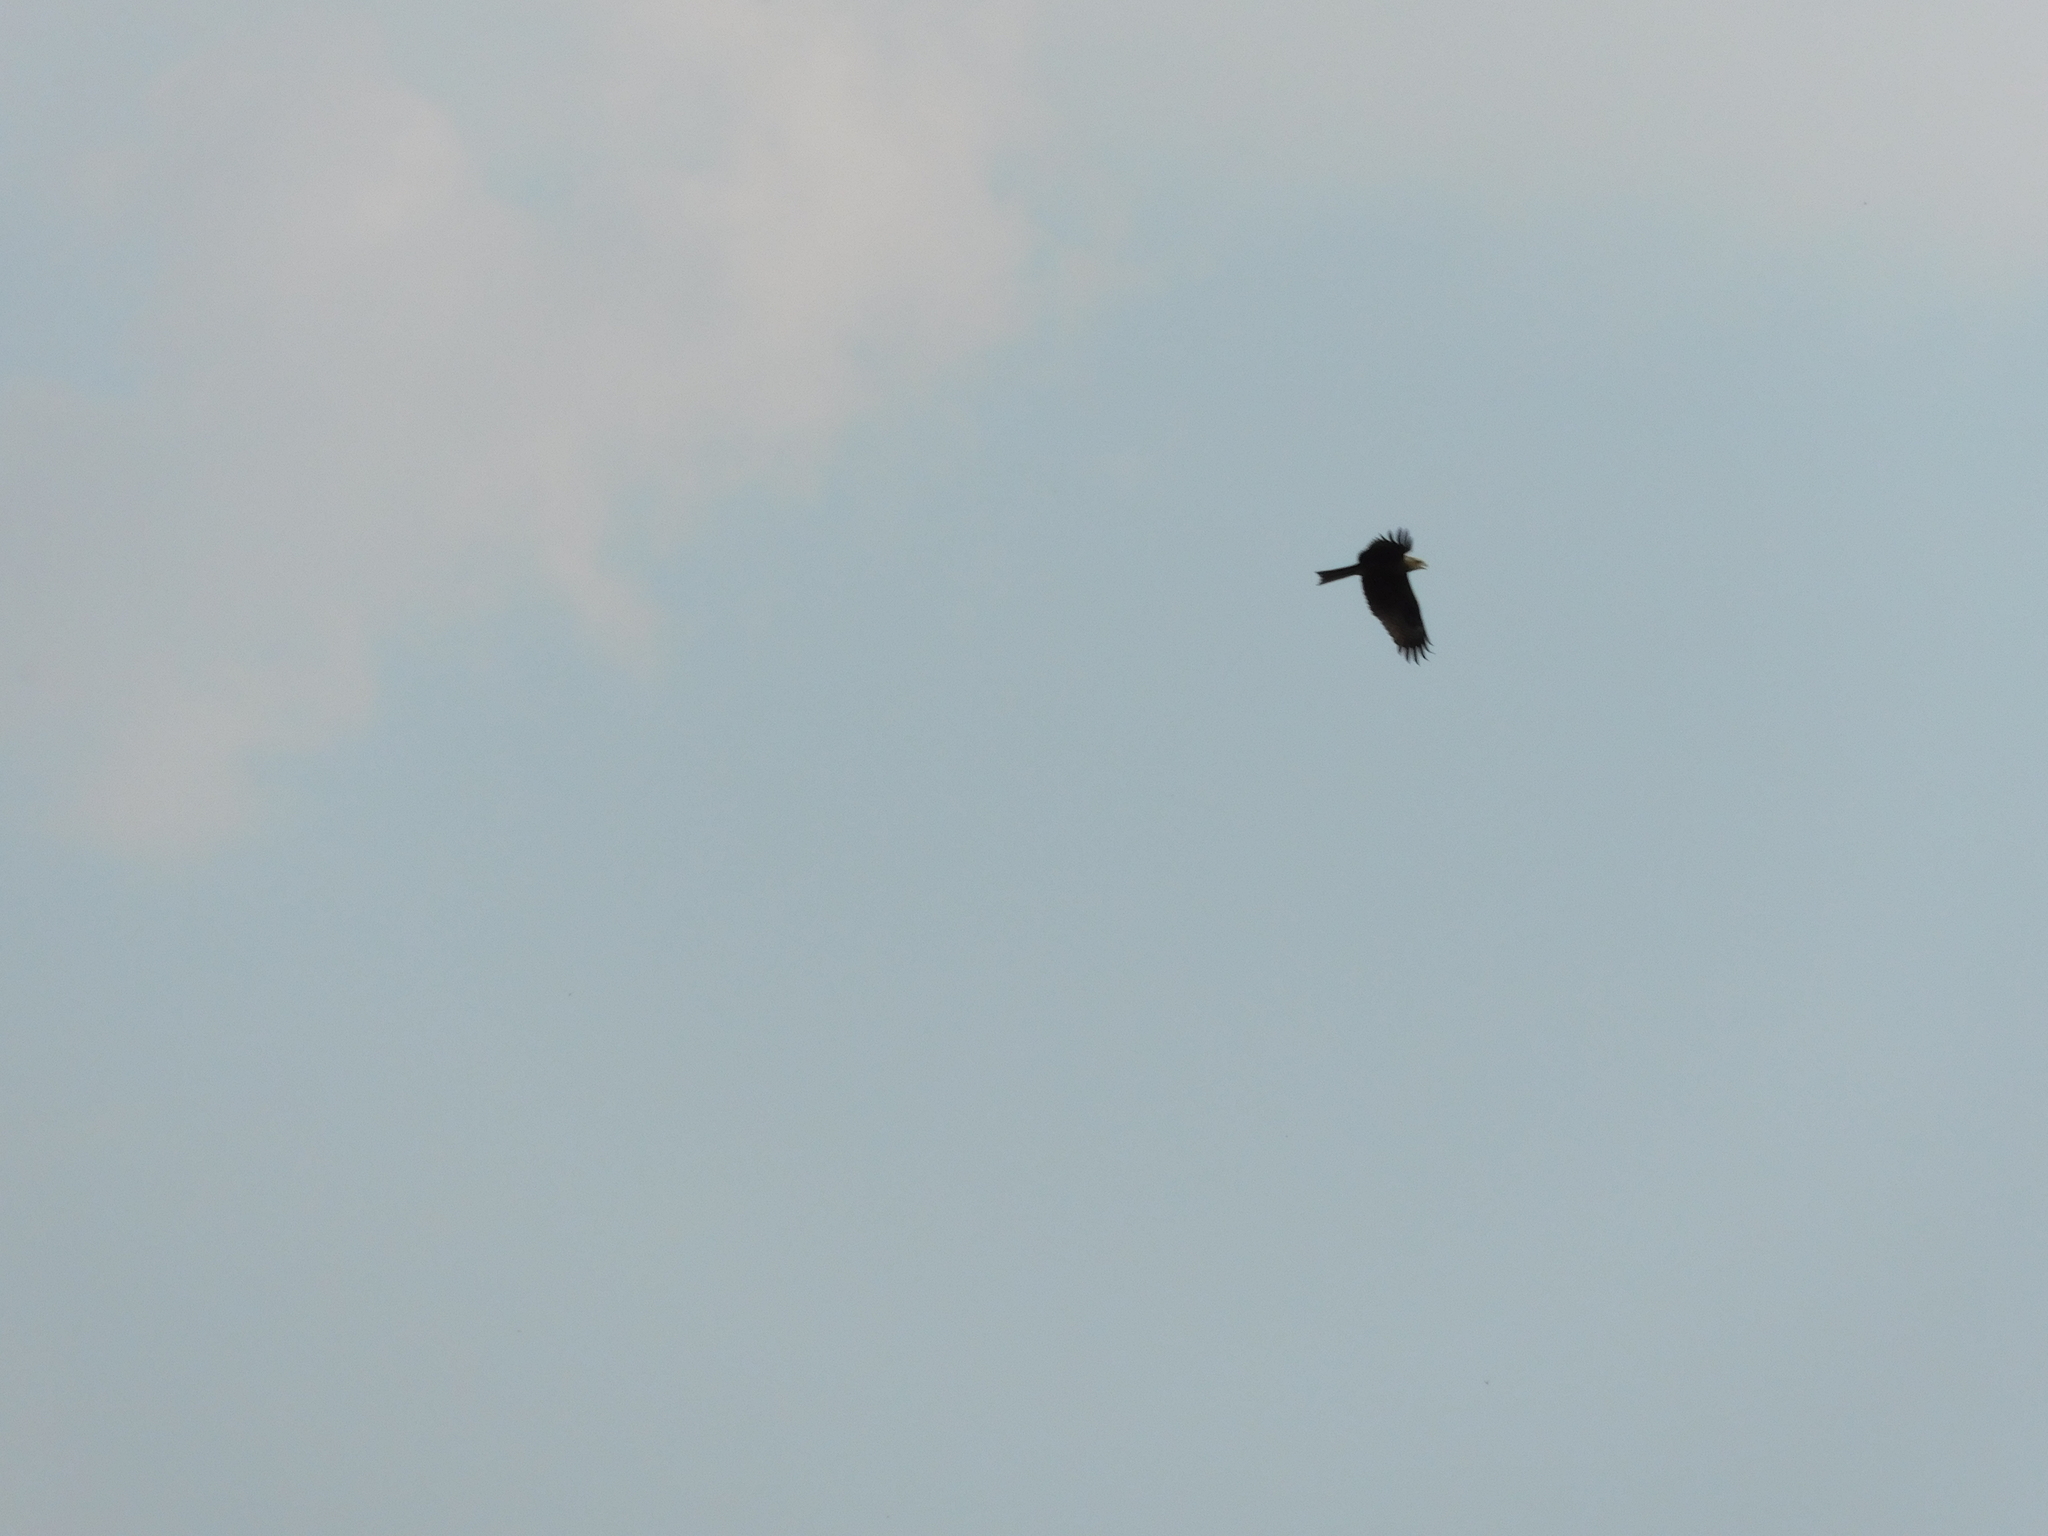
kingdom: Animalia
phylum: Chordata
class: Aves
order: Accipitriformes
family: Accipitridae
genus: Milvus
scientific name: Milvus migrans
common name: Black kite
